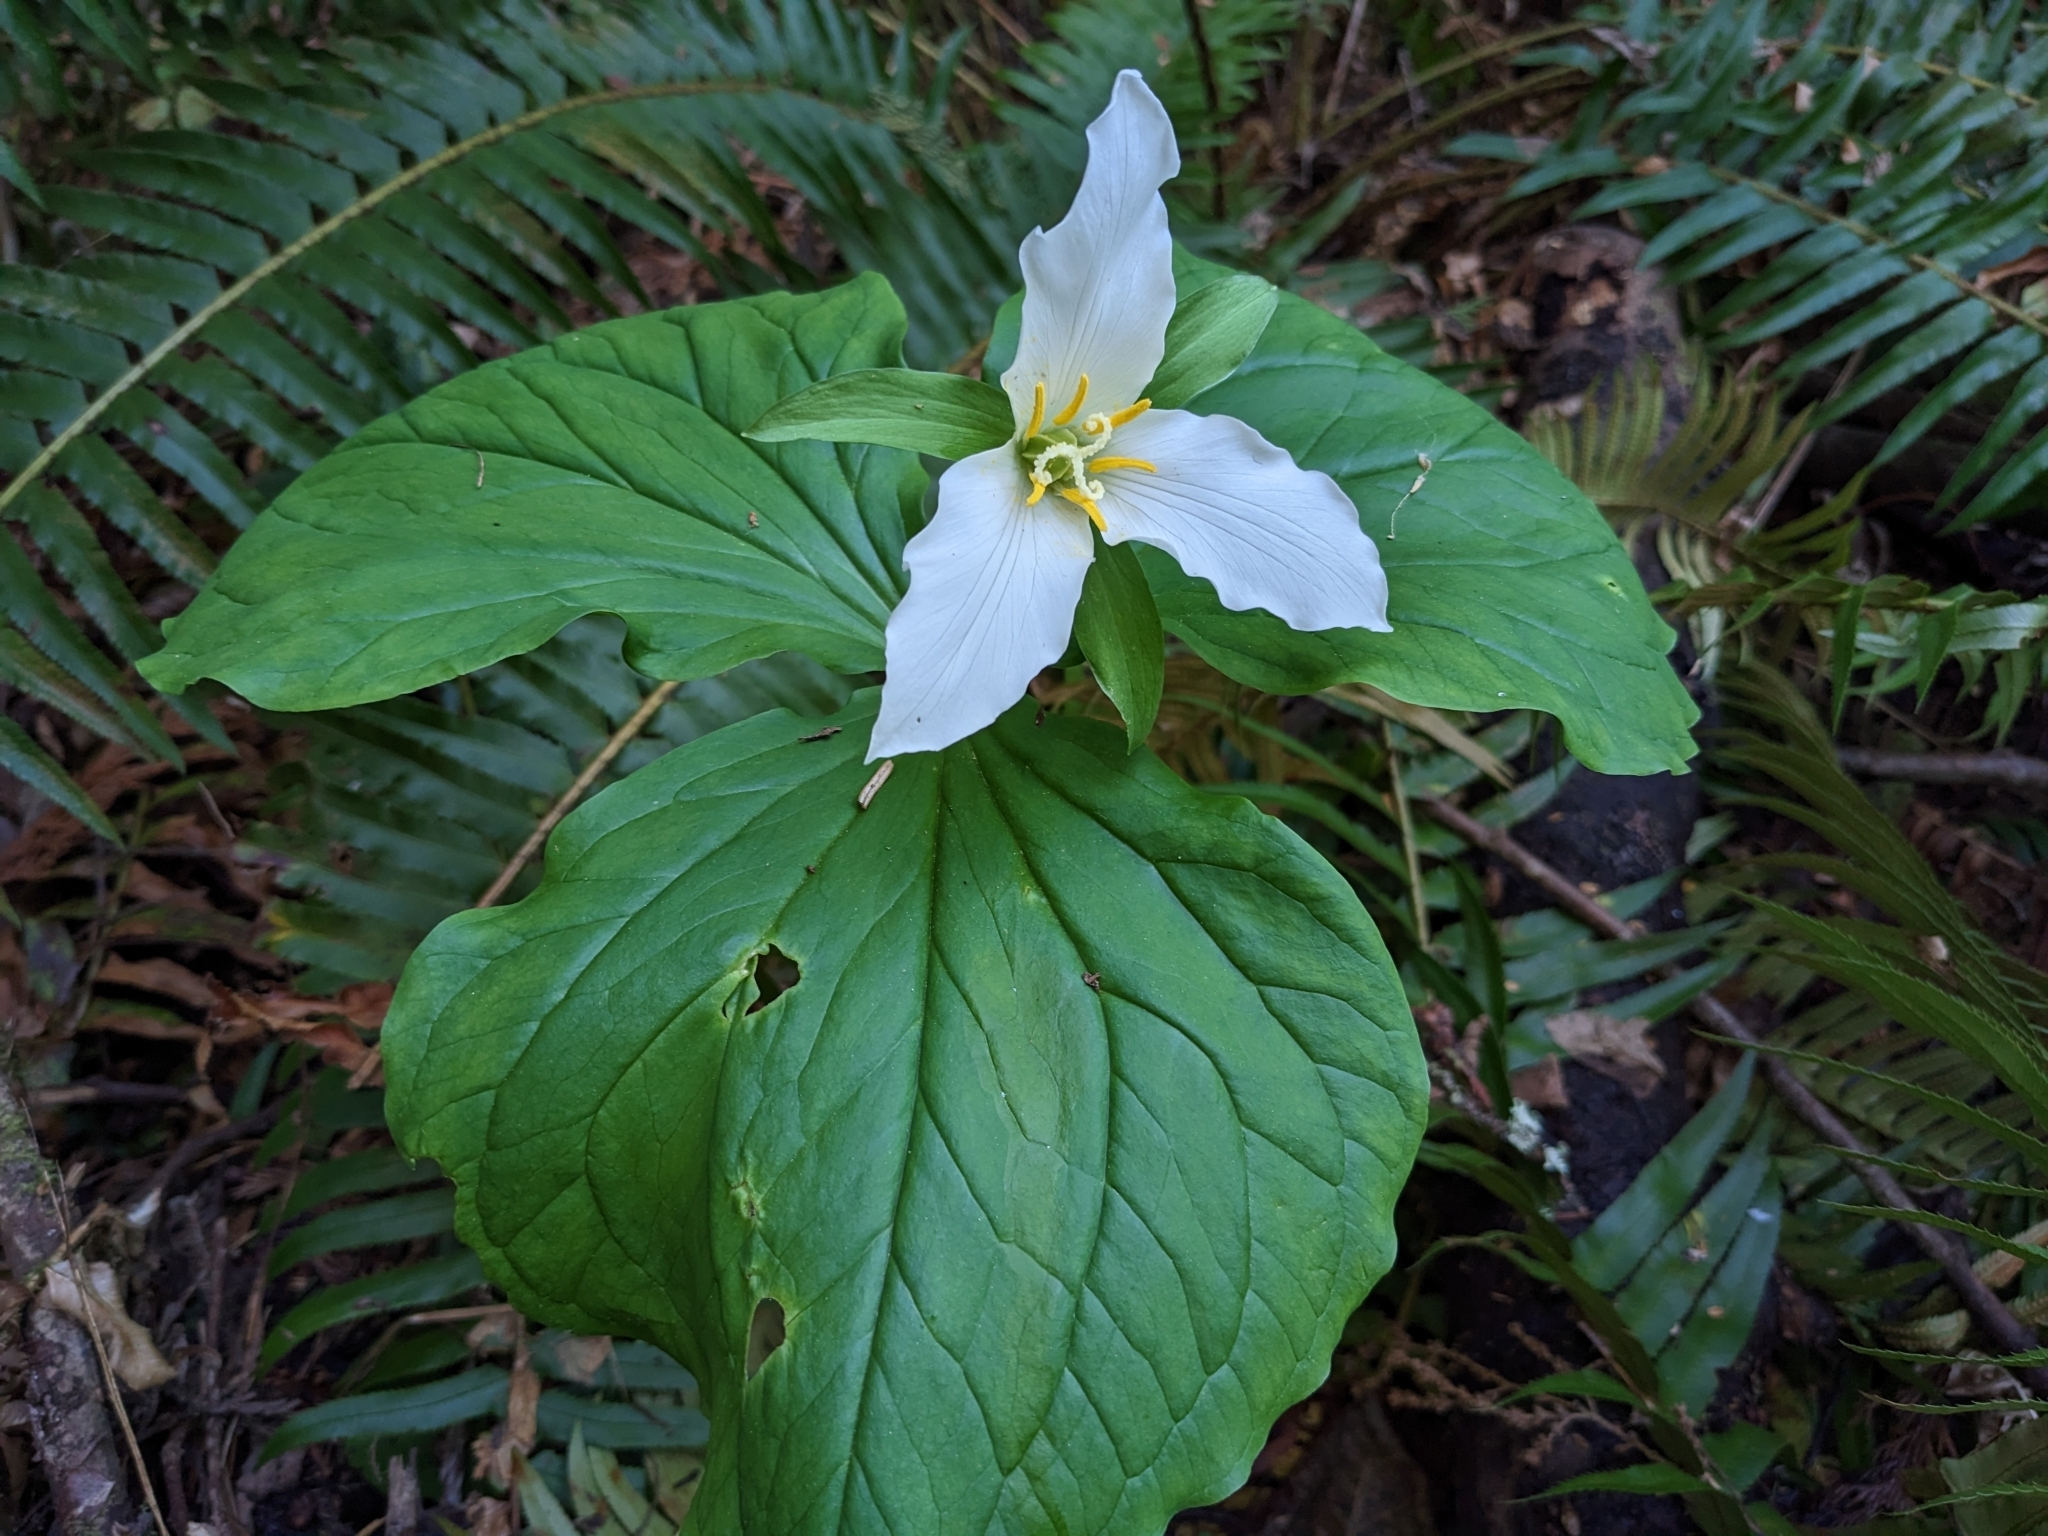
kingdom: Plantae
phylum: Tracheophyta
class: Liliopsida
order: Liliales
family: Melanthiaceae
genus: Trillium
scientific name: Trillium ovatum
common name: Pacific trillium
